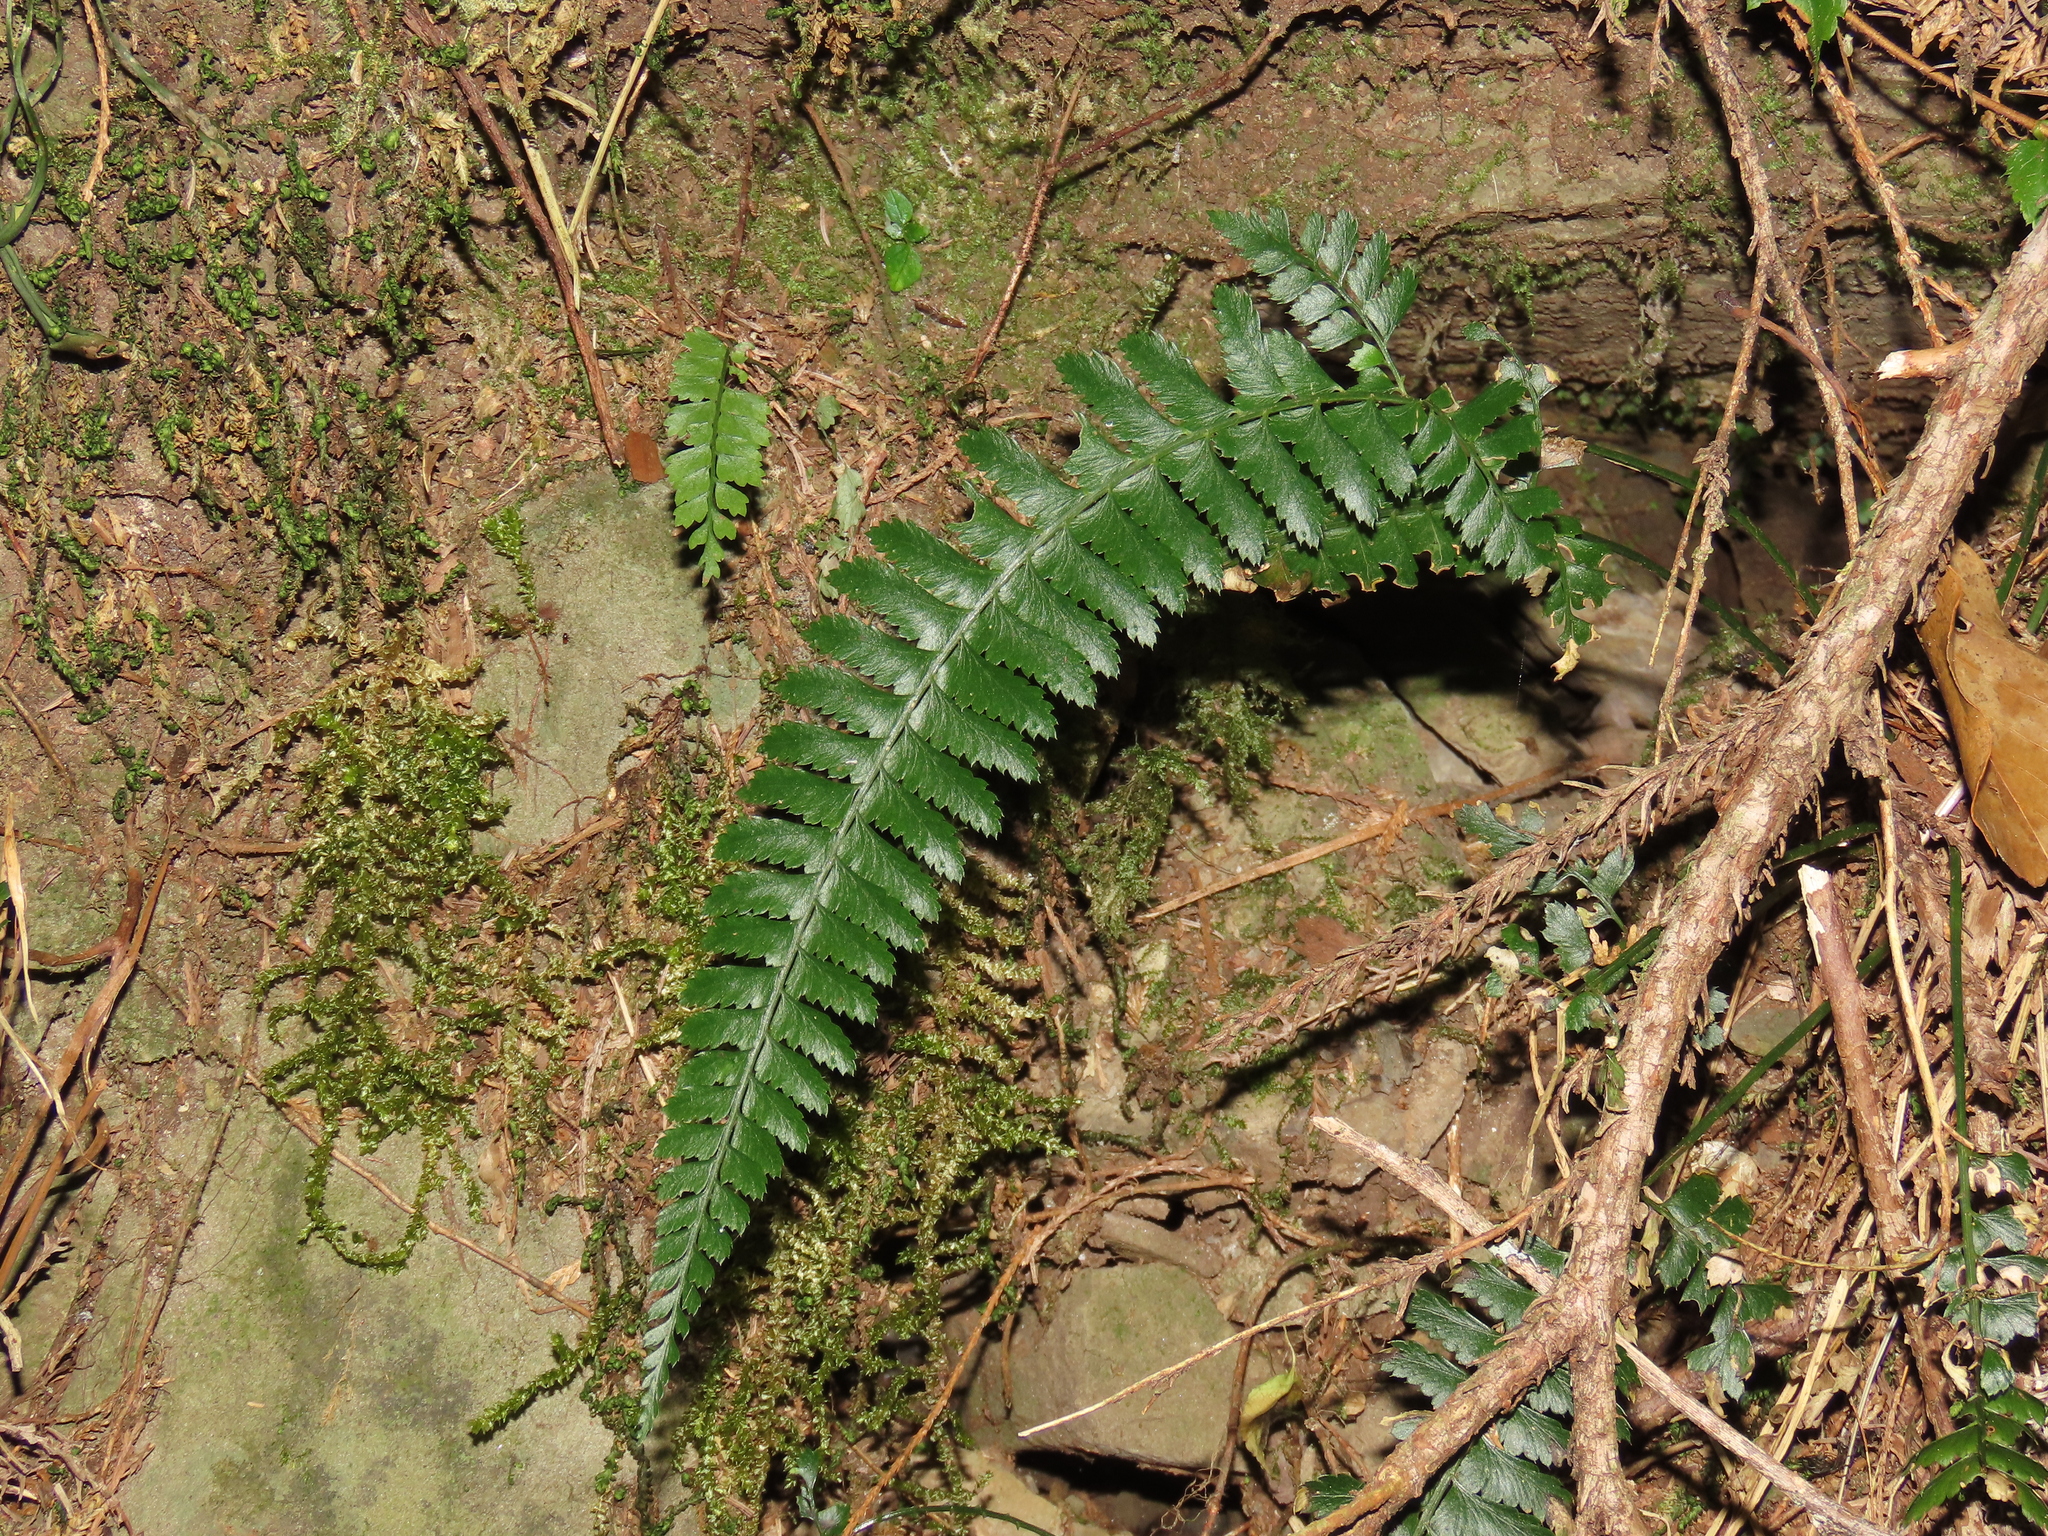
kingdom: Plantae
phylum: Tracheophyta
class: Polypodiopsida
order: Polypodiales
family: Dryopteridaceae
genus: Polystichum
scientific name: Polystichum hancockii
